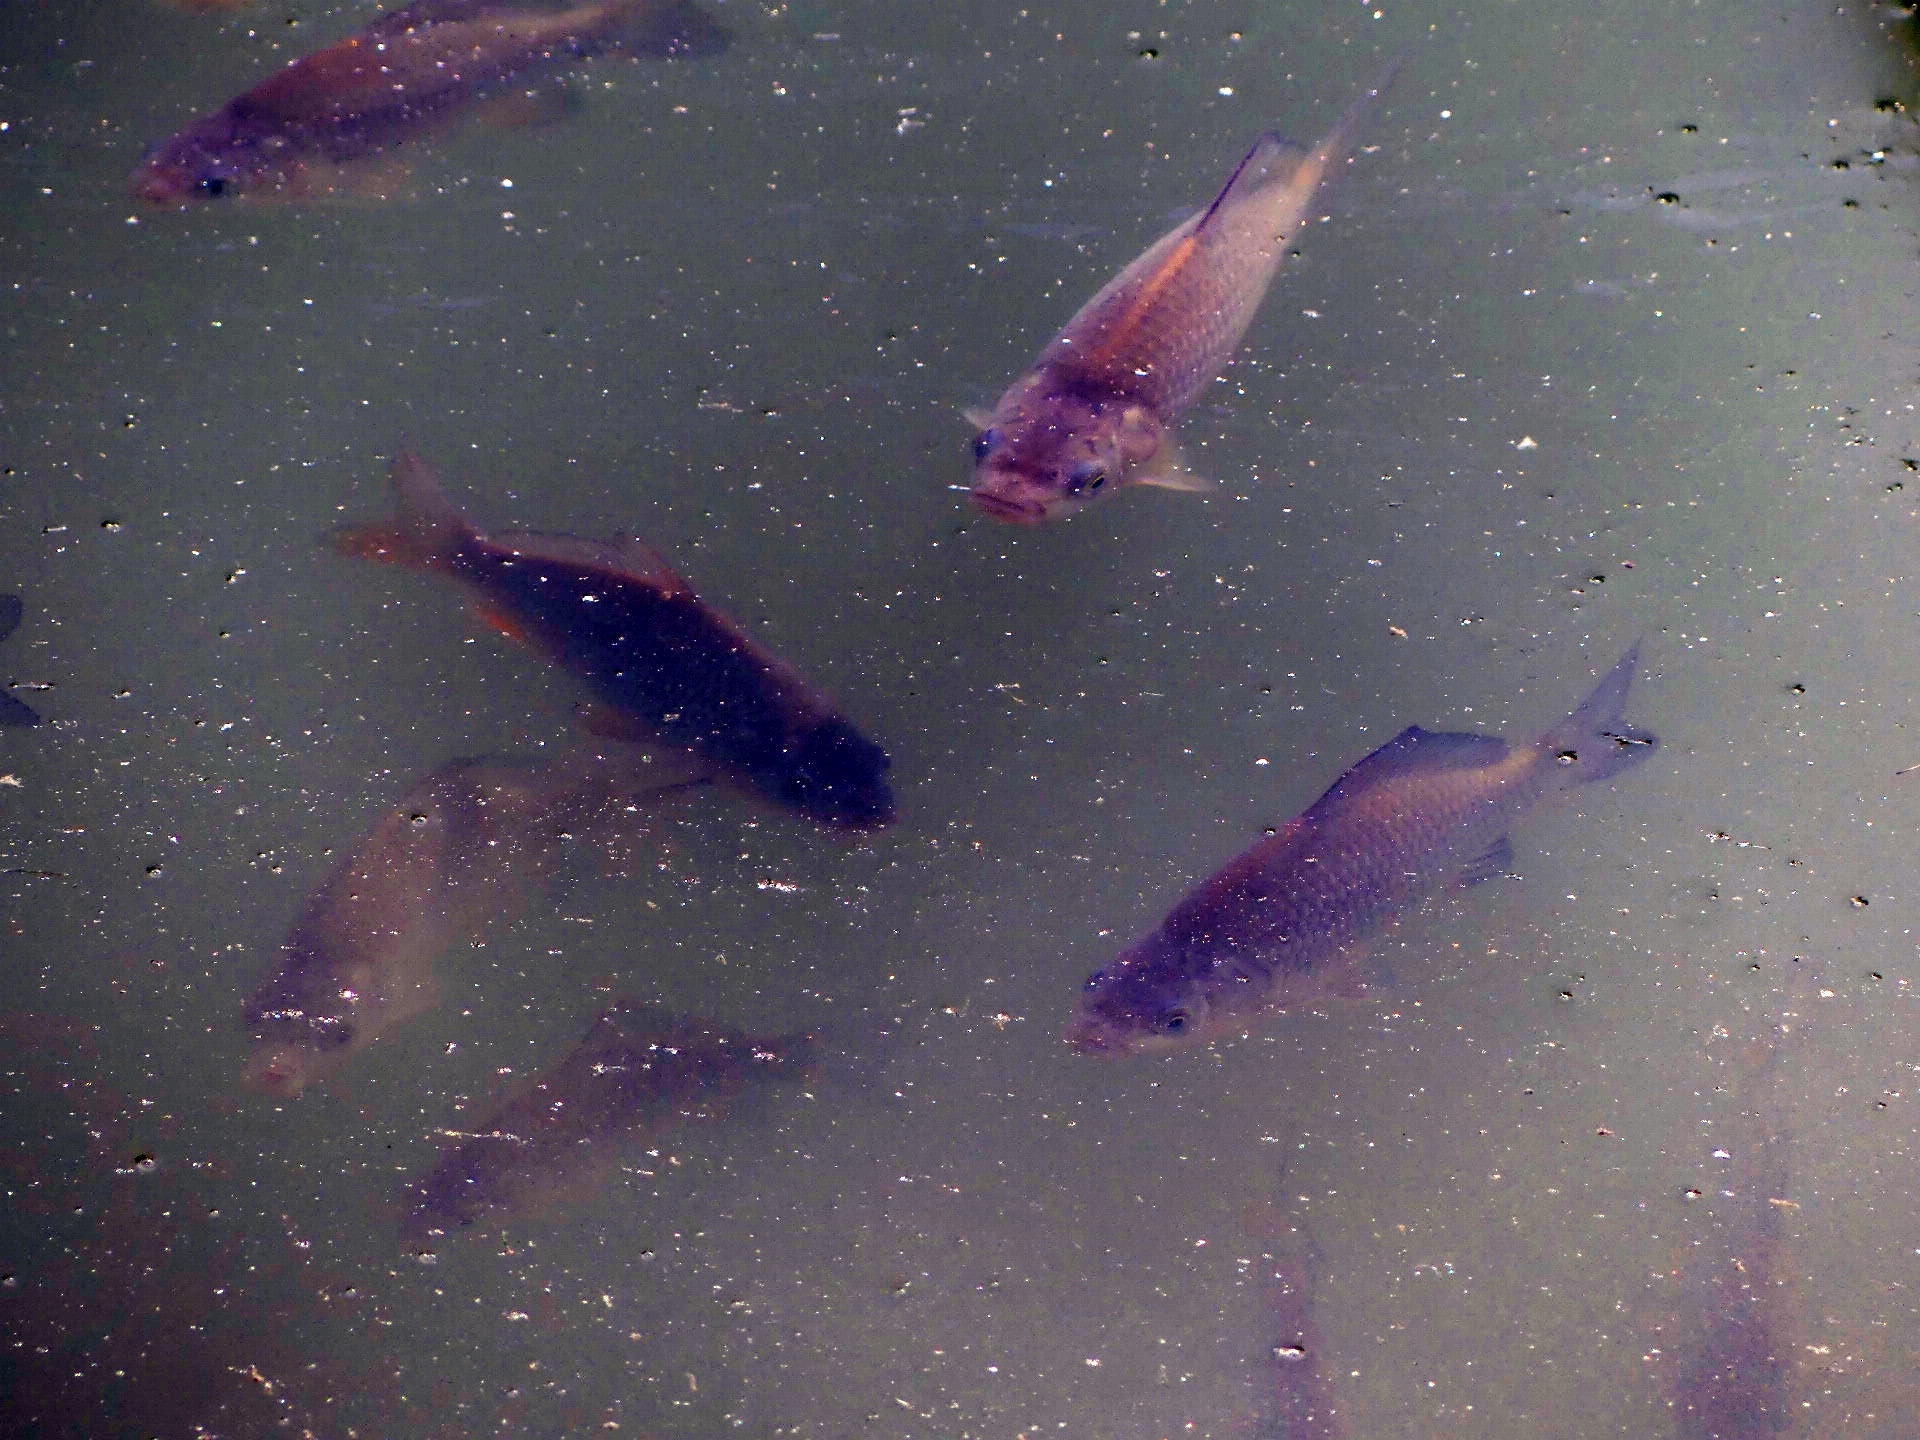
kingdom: Animalia
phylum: Chordata
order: Cypriniformes
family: Cyprinidae
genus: Carassius
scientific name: Carassius gibelio
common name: Prussian carp
